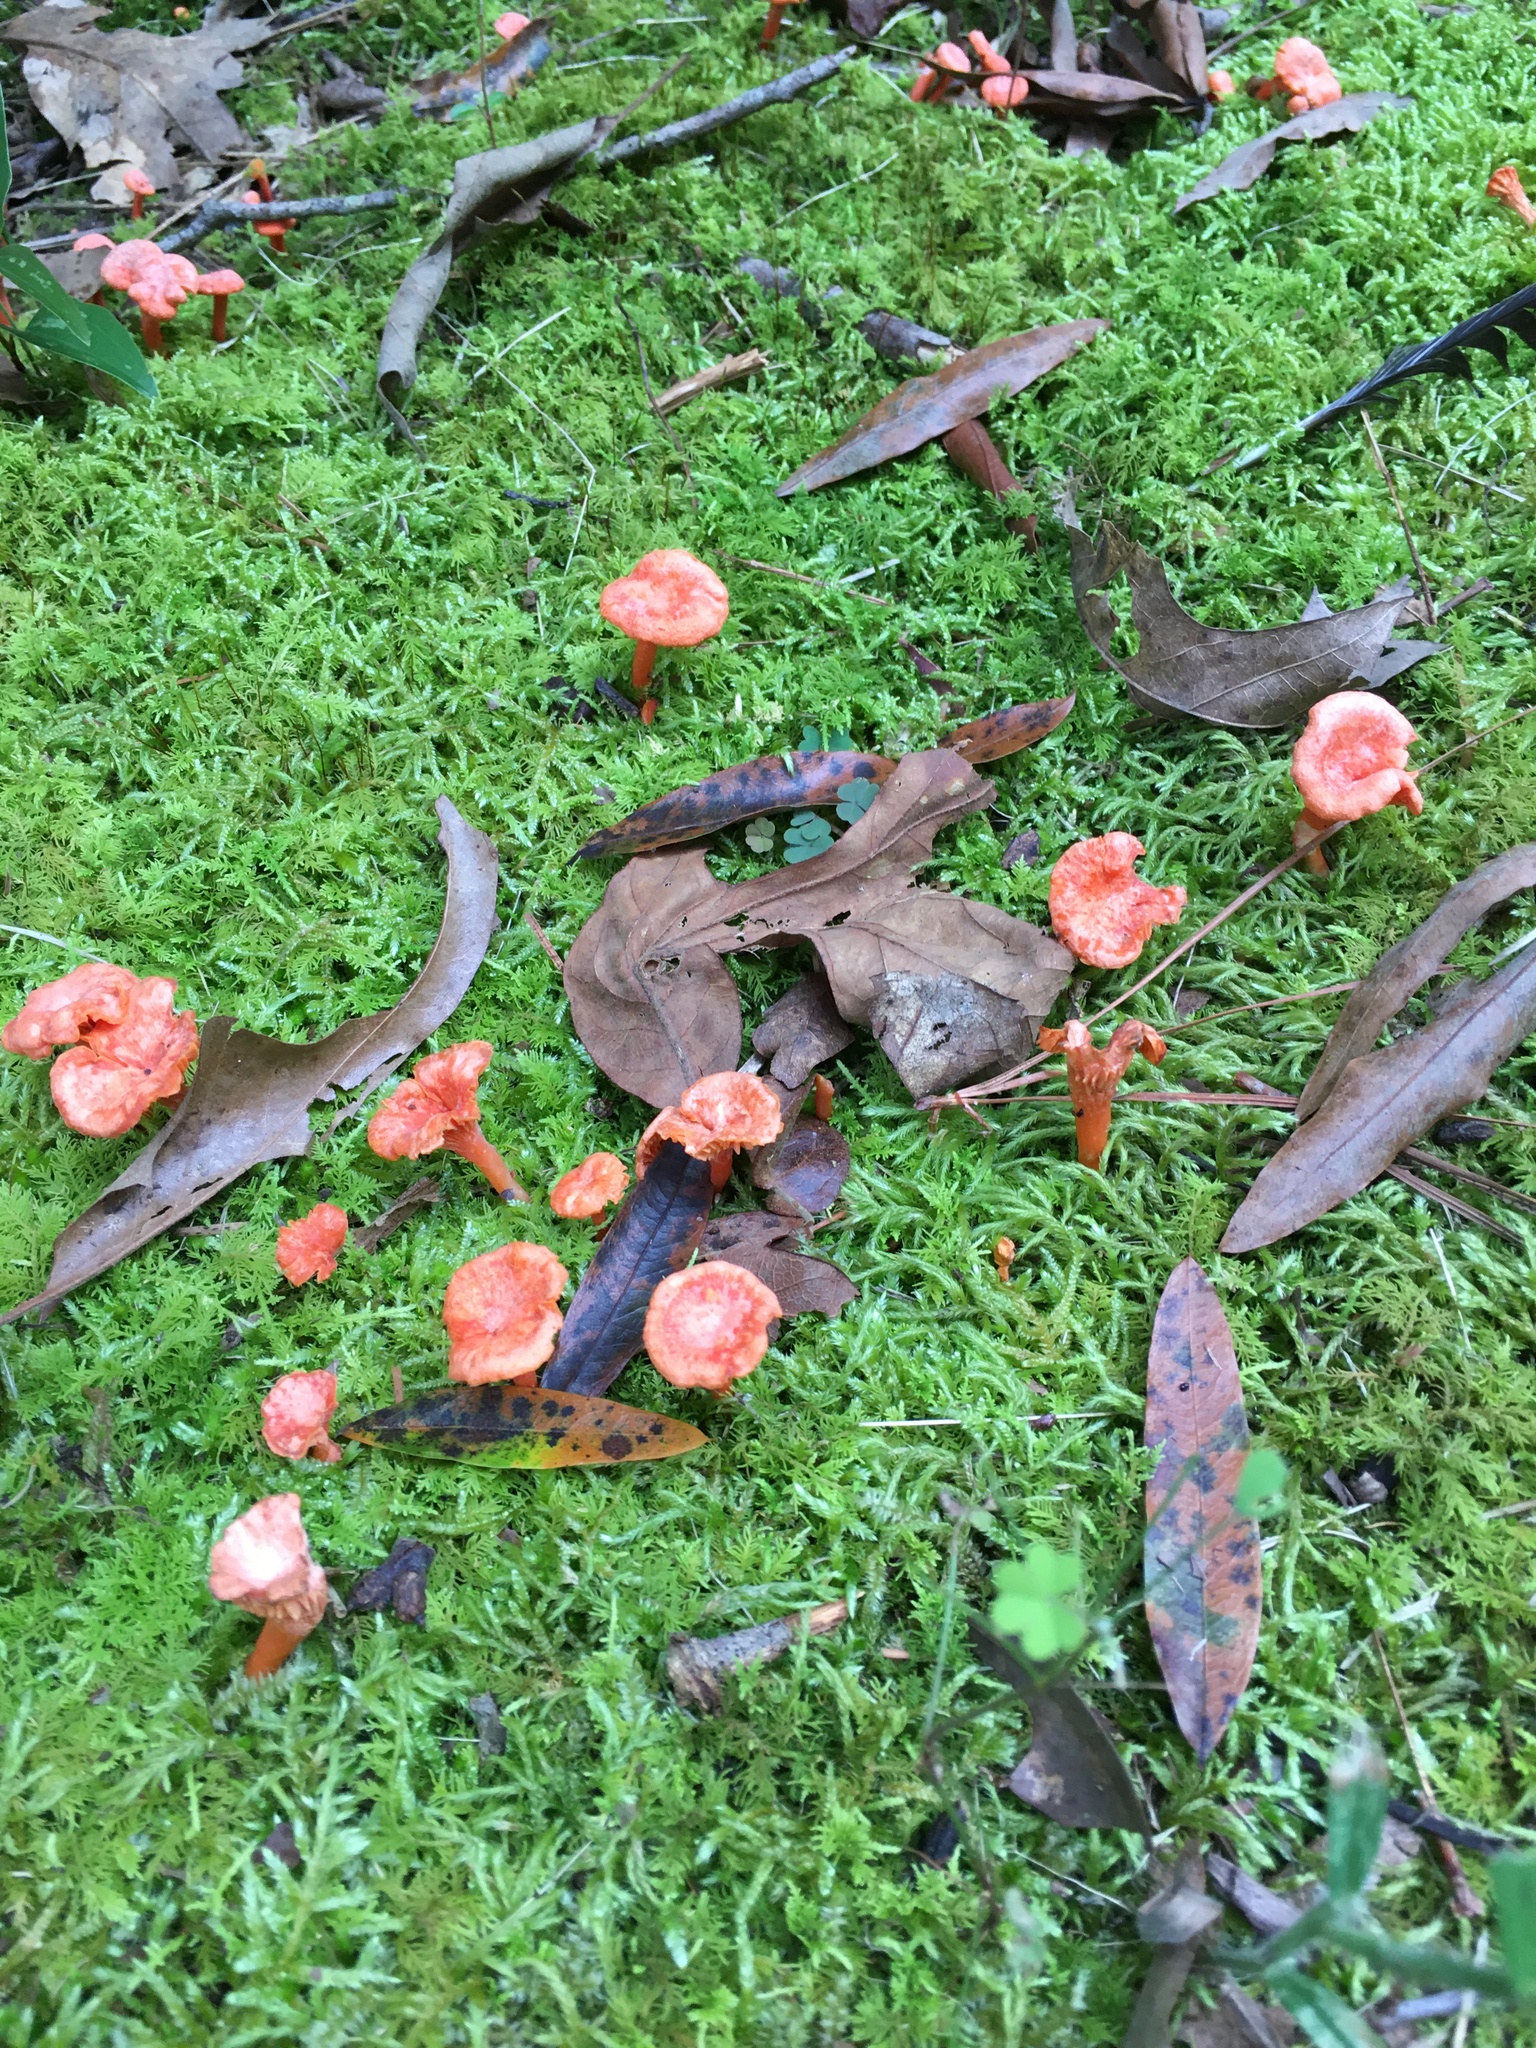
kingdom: Fungi
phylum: Basidiomycota
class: Agaricomycetes
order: Cantharellales
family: Hydnaceae
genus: Cantharellus
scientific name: Cantharellus cinnabarinus
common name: Cinnabar chanterelle
